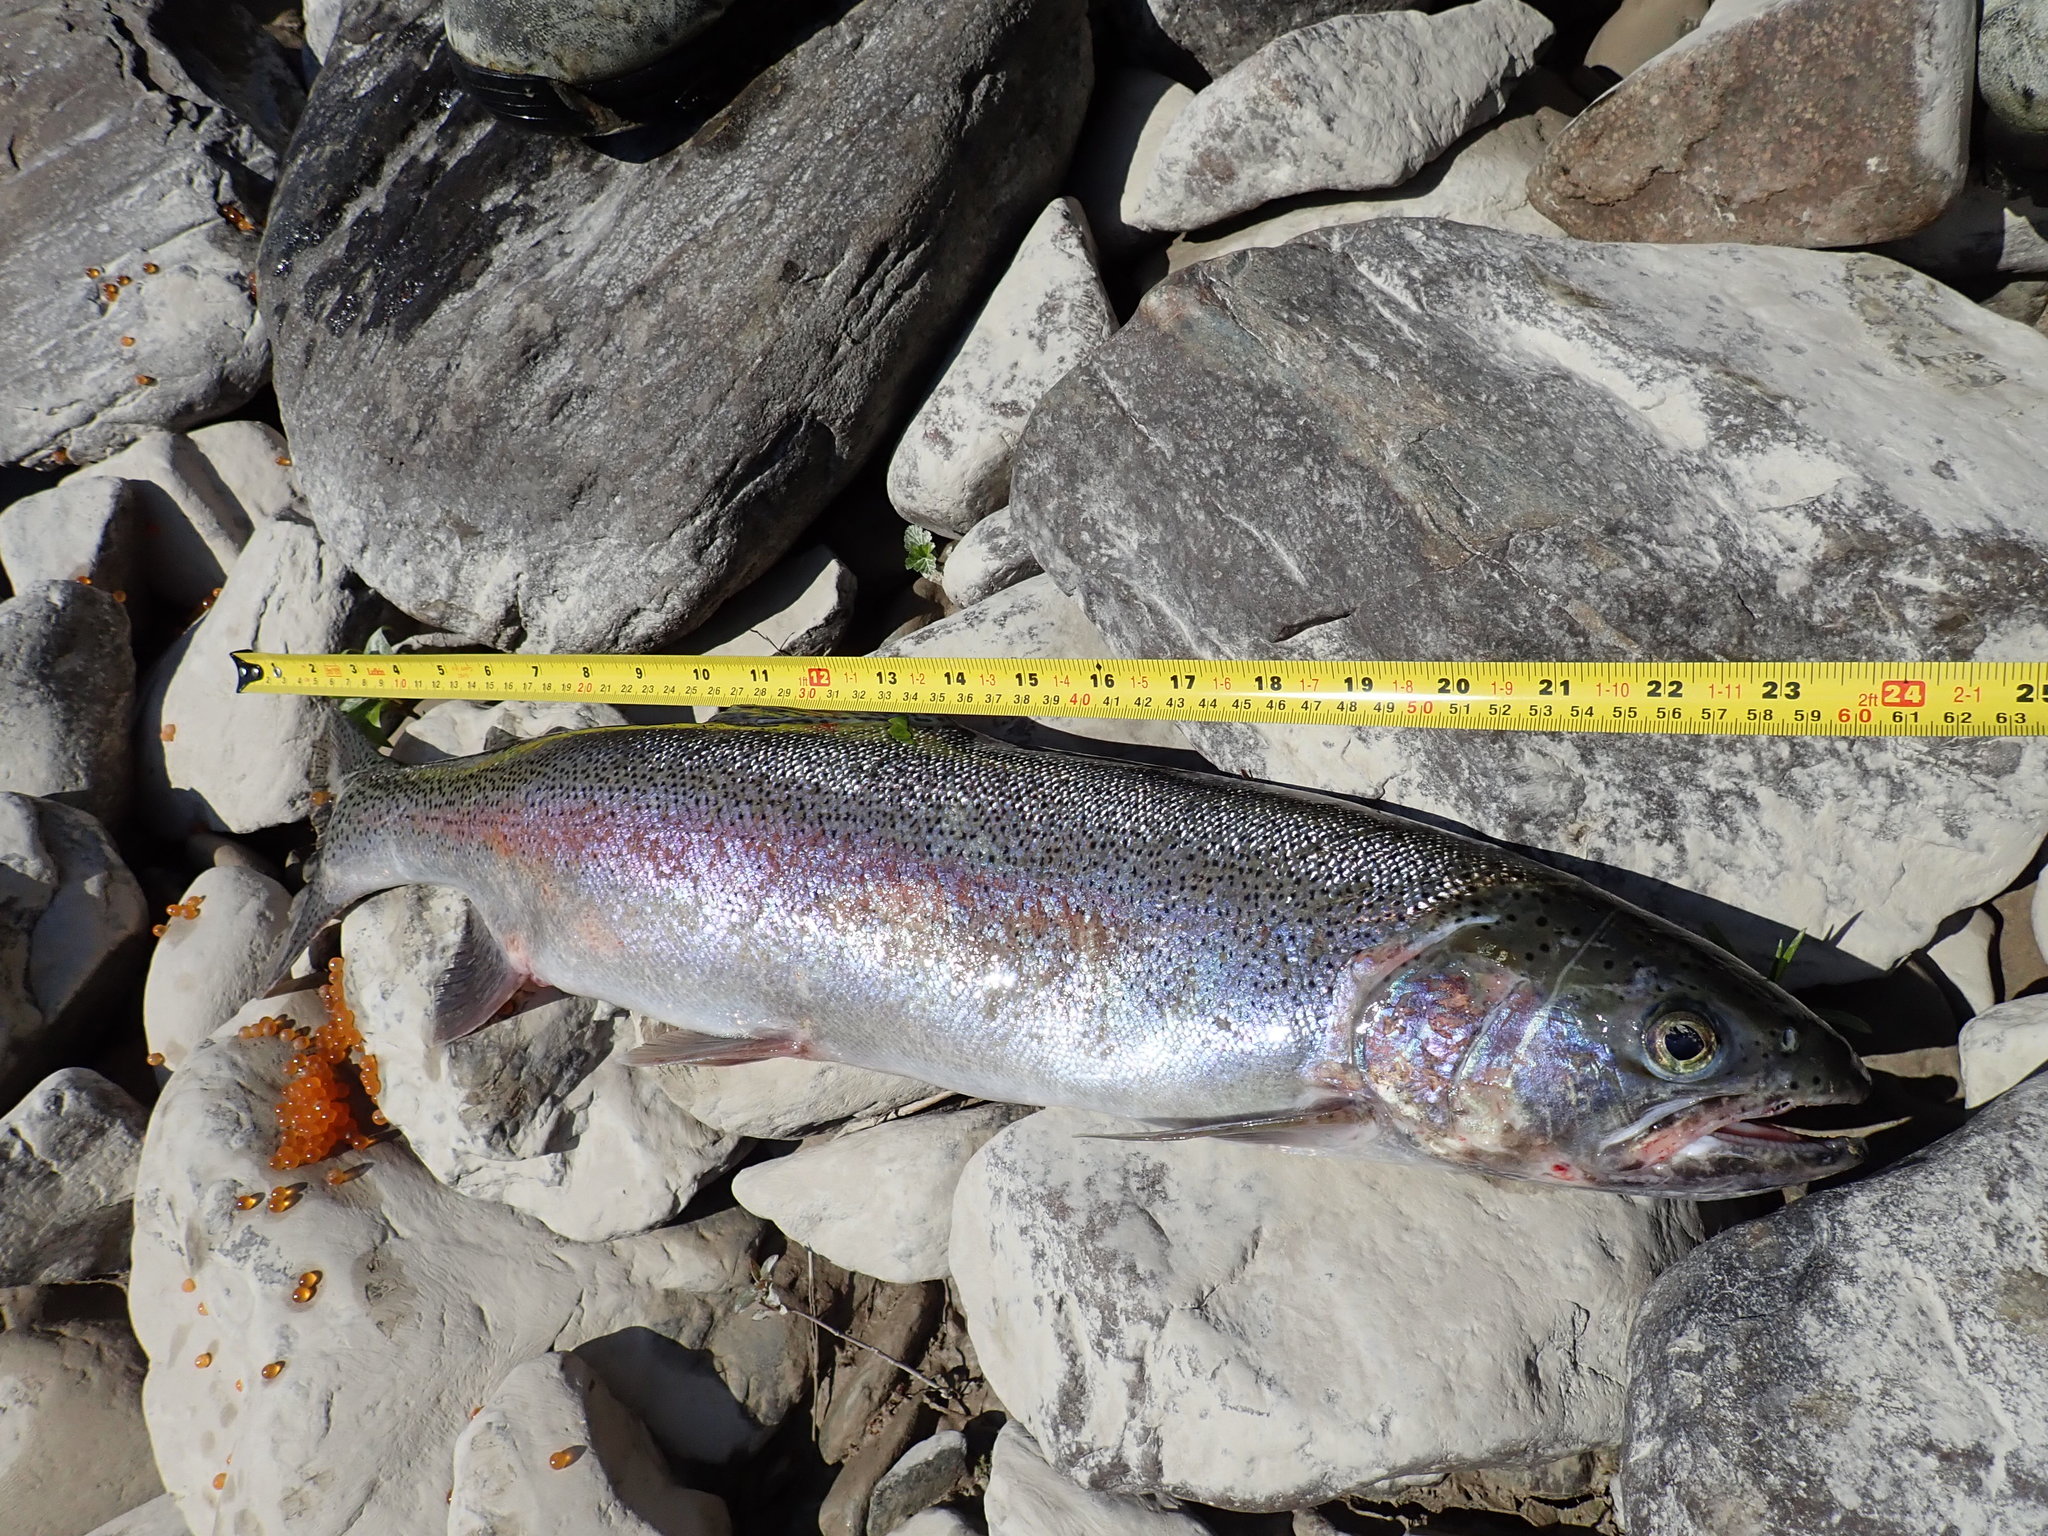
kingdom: Animalia
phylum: Chordata
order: Salmoniformes
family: Salmonidae
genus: Oncorhynchus
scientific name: Oncorhynchus mykiss
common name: Rainbow trout
